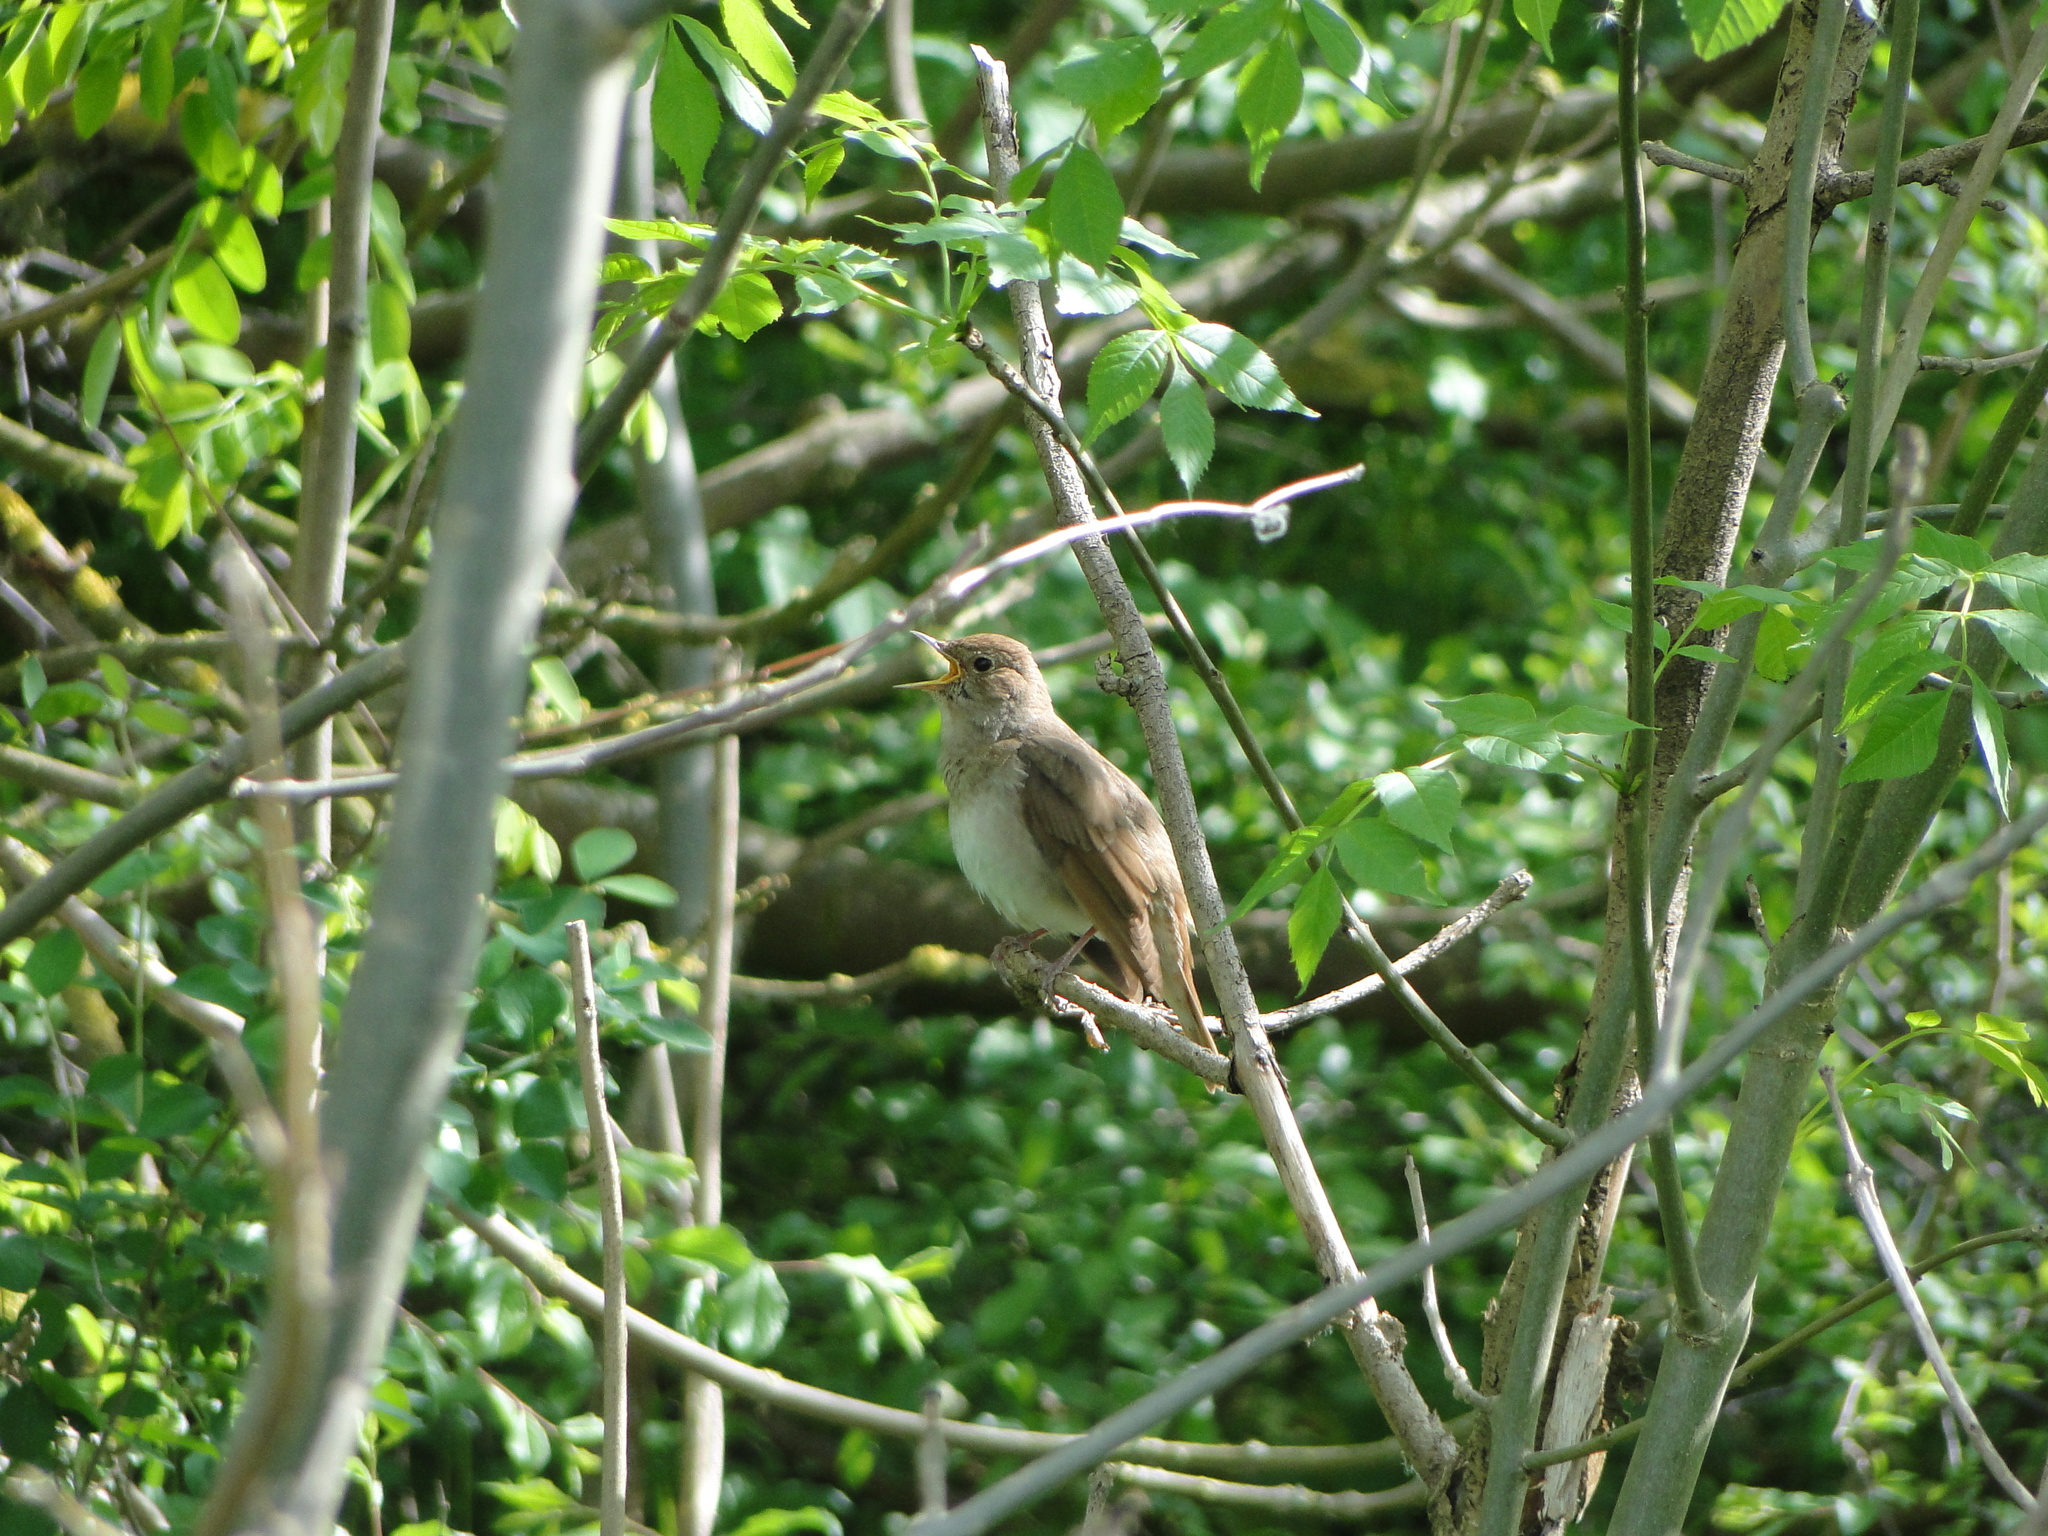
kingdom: Animalia
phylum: Chordata
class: Aves
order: Passeriformes
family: Muscicapidae
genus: Luscinia
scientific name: Luscinia luscinia
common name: Thrush nightingale
